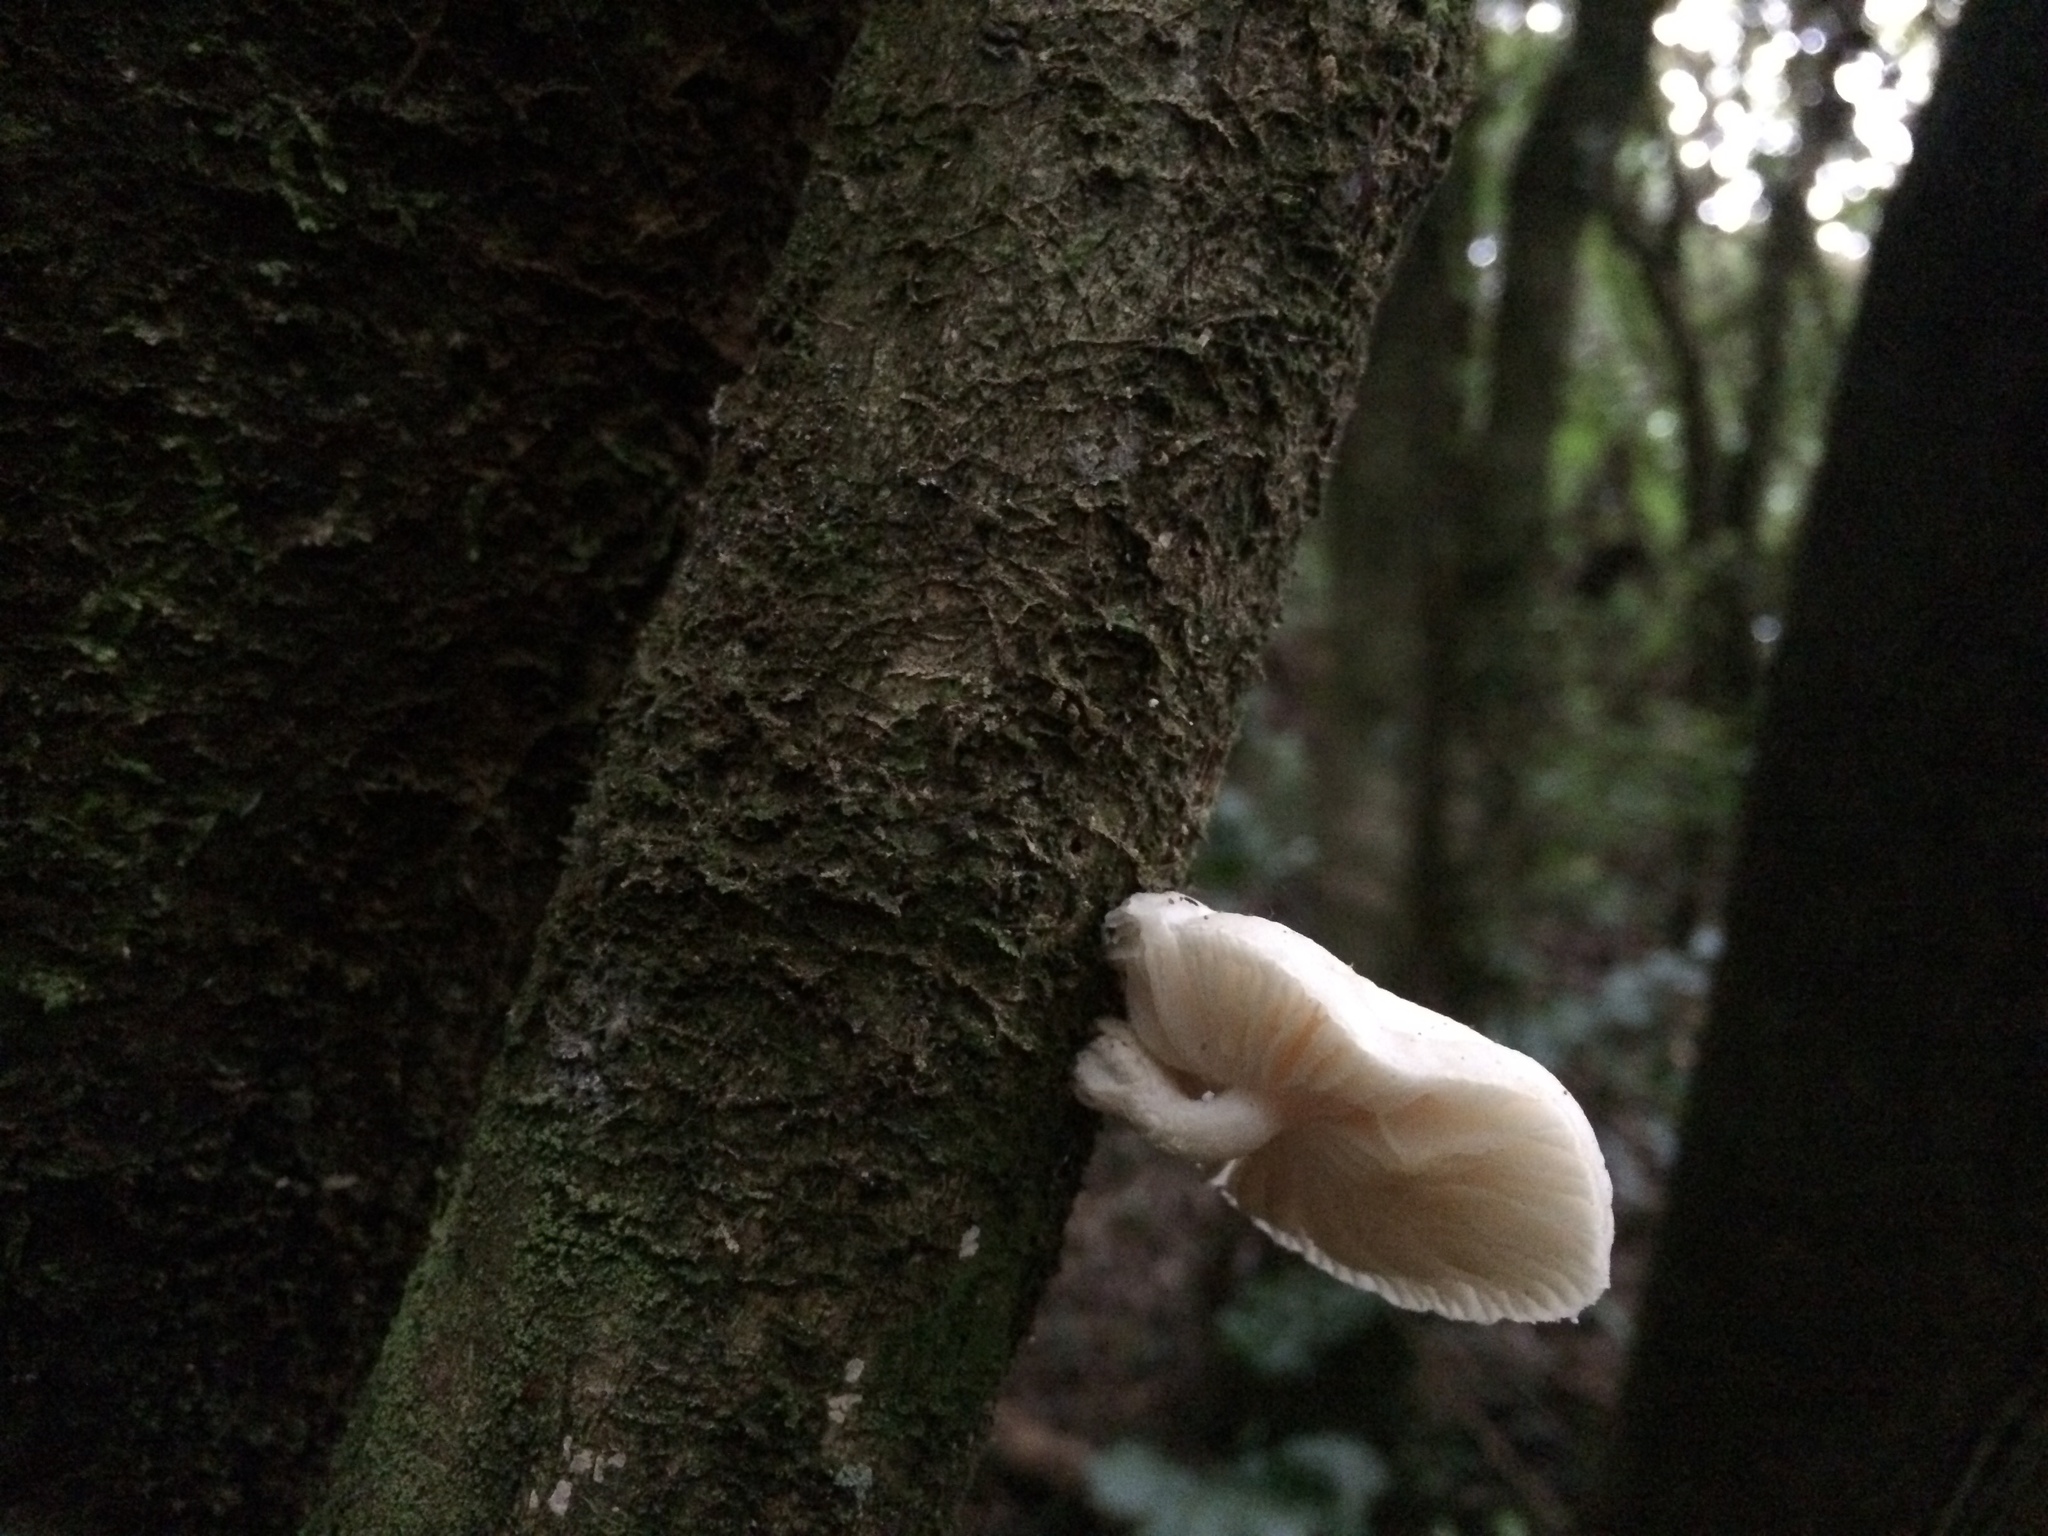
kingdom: Fungi
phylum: Basidiomycota
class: Agaricomycetes
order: Agaricales
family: Physalacriaceae
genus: Oudemansiella
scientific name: Oudemansiella australis
